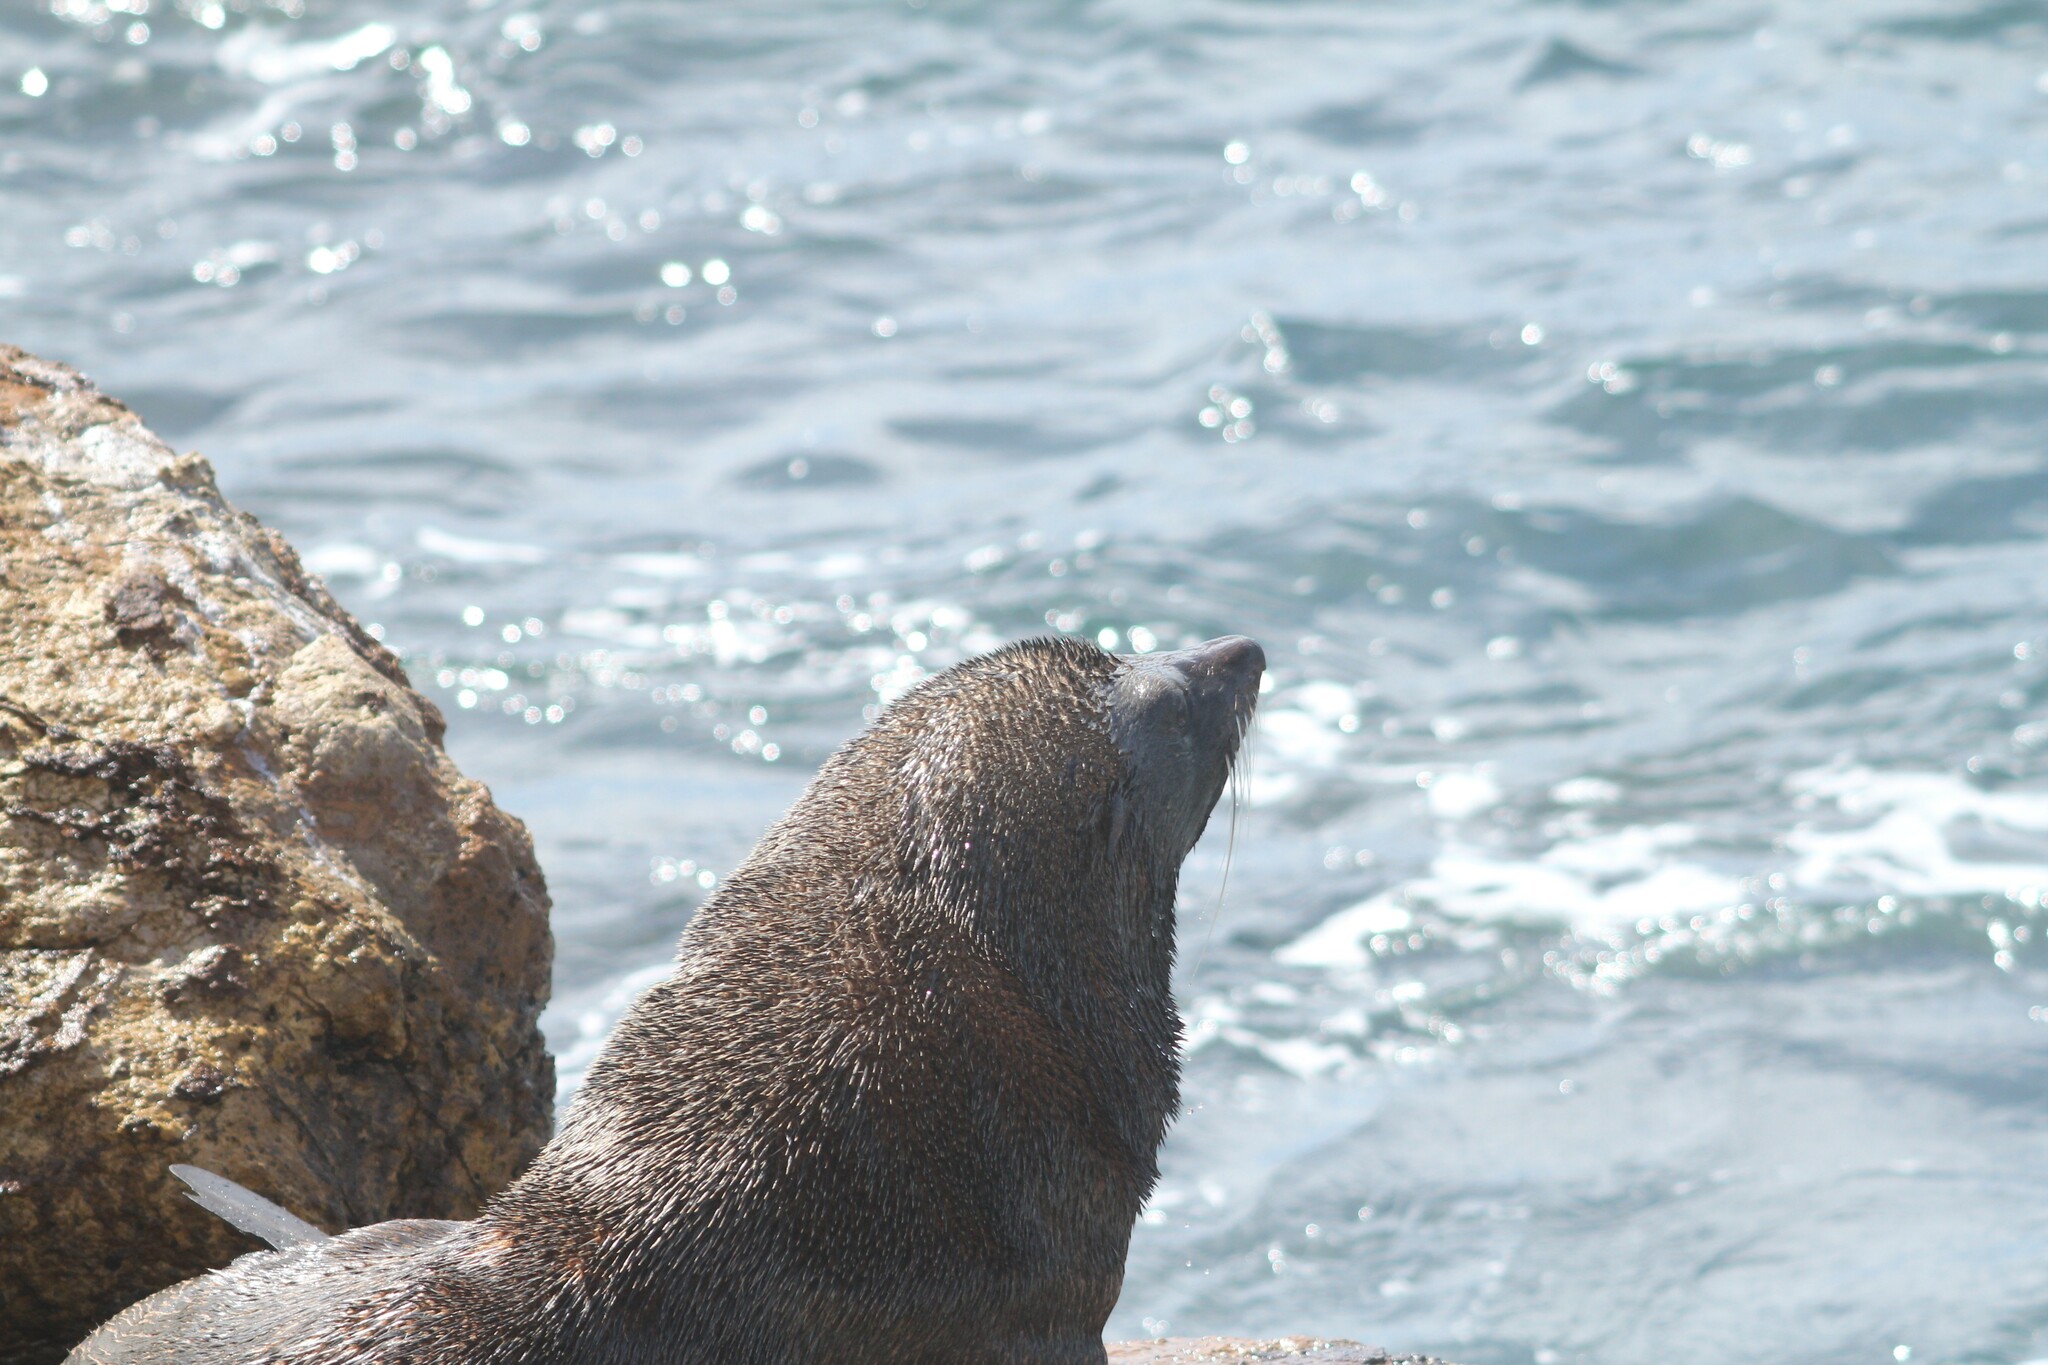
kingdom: Animalia
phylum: Chordata
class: Mammalia
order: Carnivora
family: Otariidae
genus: Arctocephalus
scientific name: Arctocephalus forsteri
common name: New zealand fur seal
